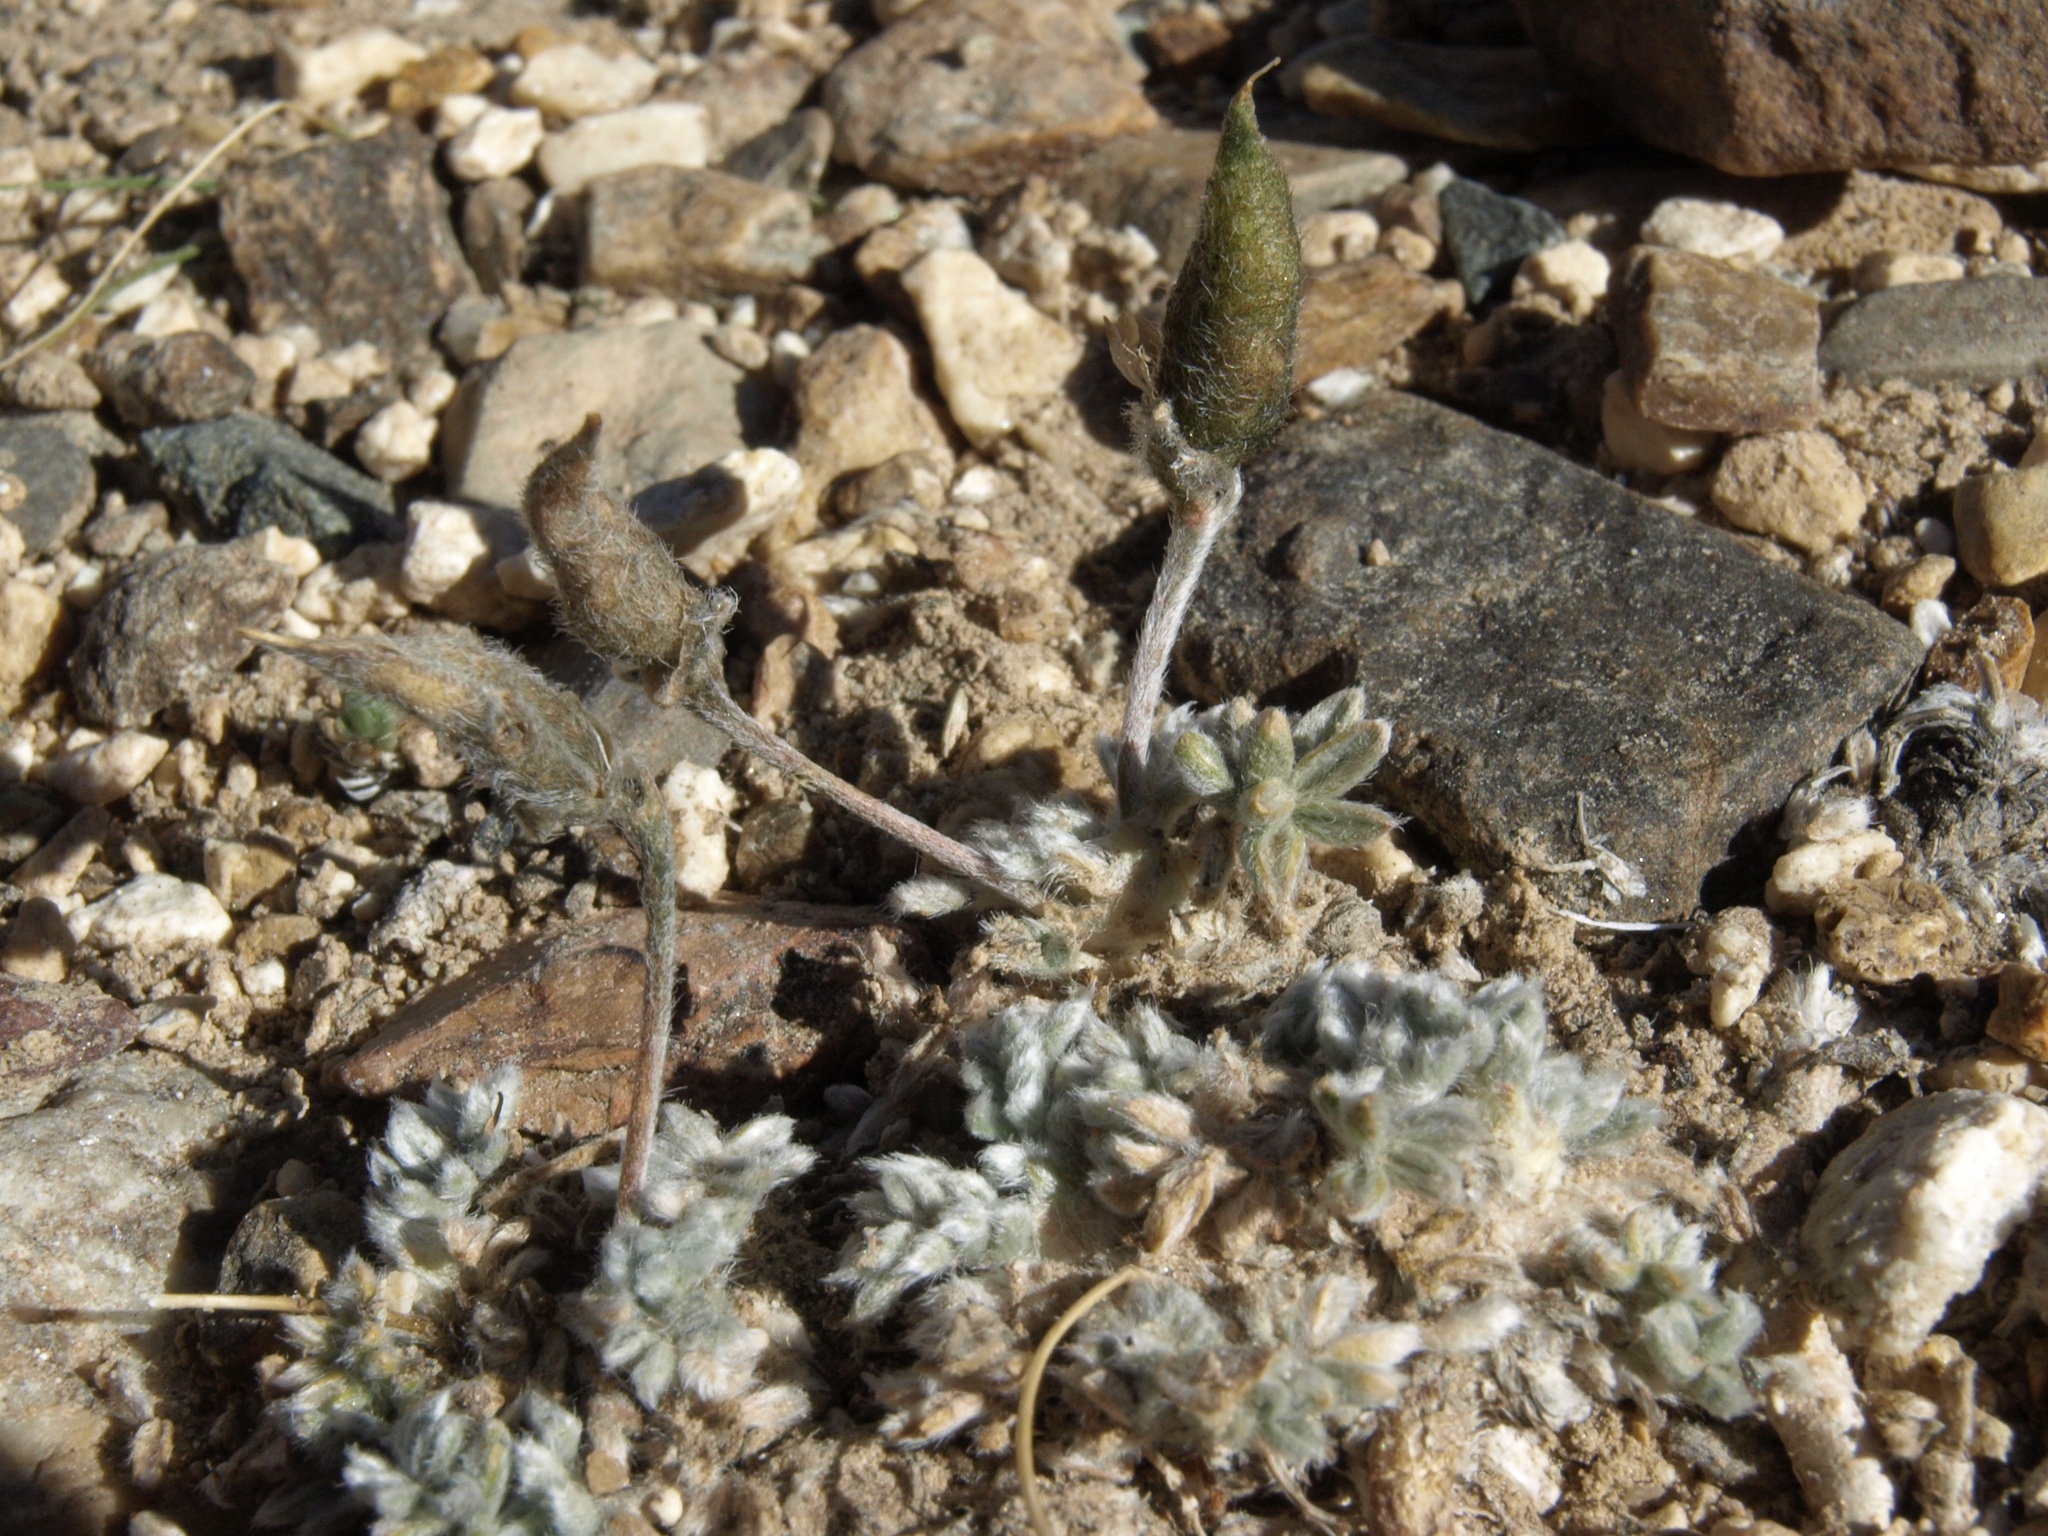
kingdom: Plantae
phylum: Tracheophyta
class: Magnoliopsida
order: Fabales
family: Fabaceae
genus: Oxytropis
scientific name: Oxytropis parryi
